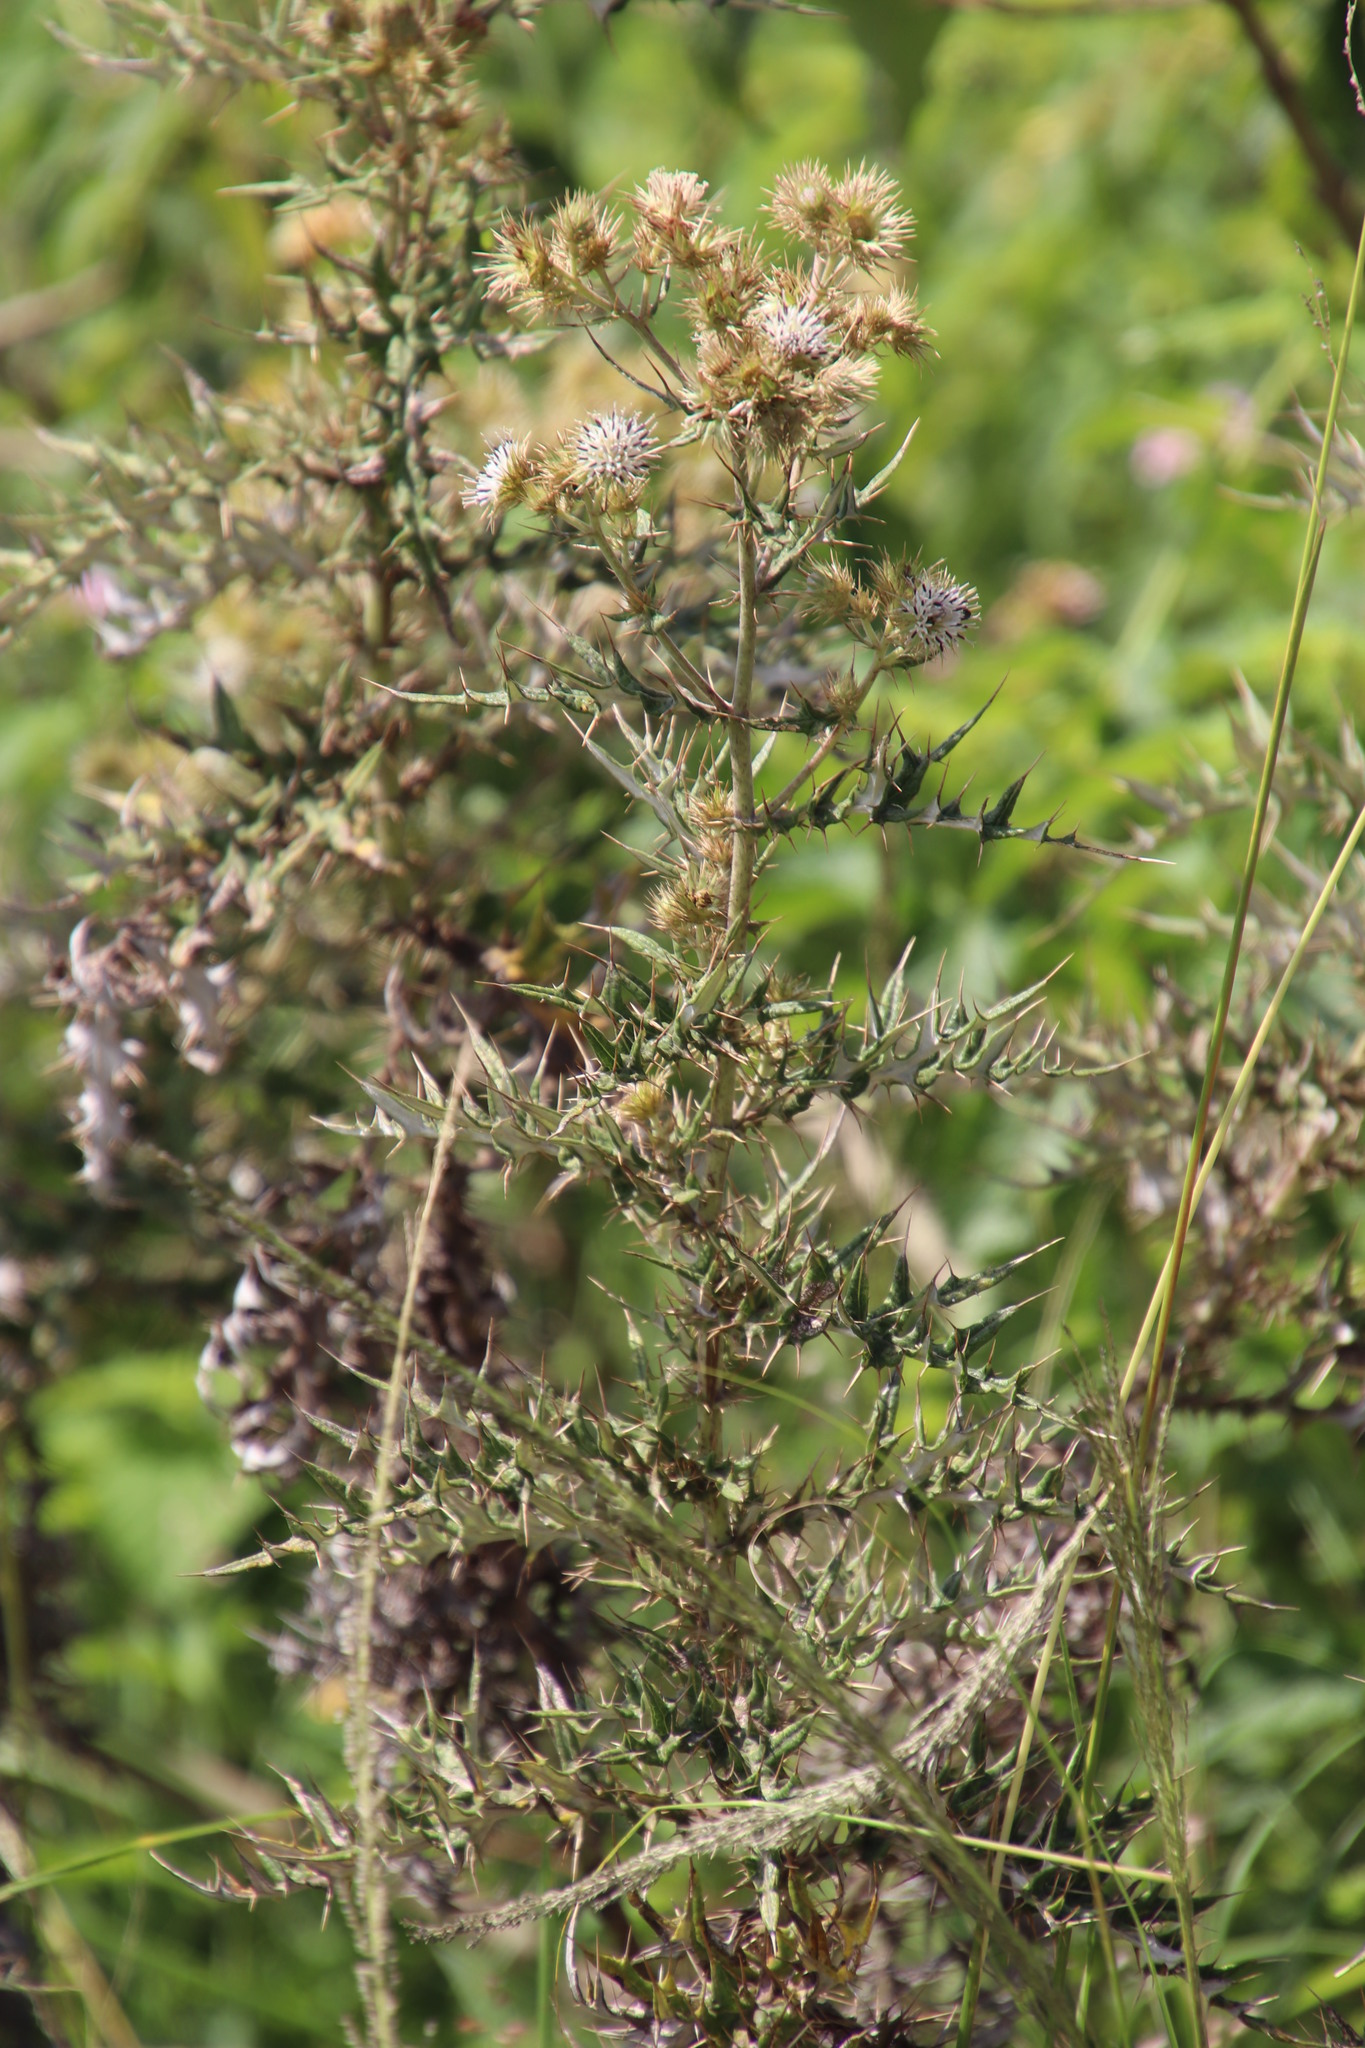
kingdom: Plantae
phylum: Tracheophyta
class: Magnoliopsida
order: Asterales
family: Asteraceae
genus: Berkheya
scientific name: Berkheya bipinnatifida
